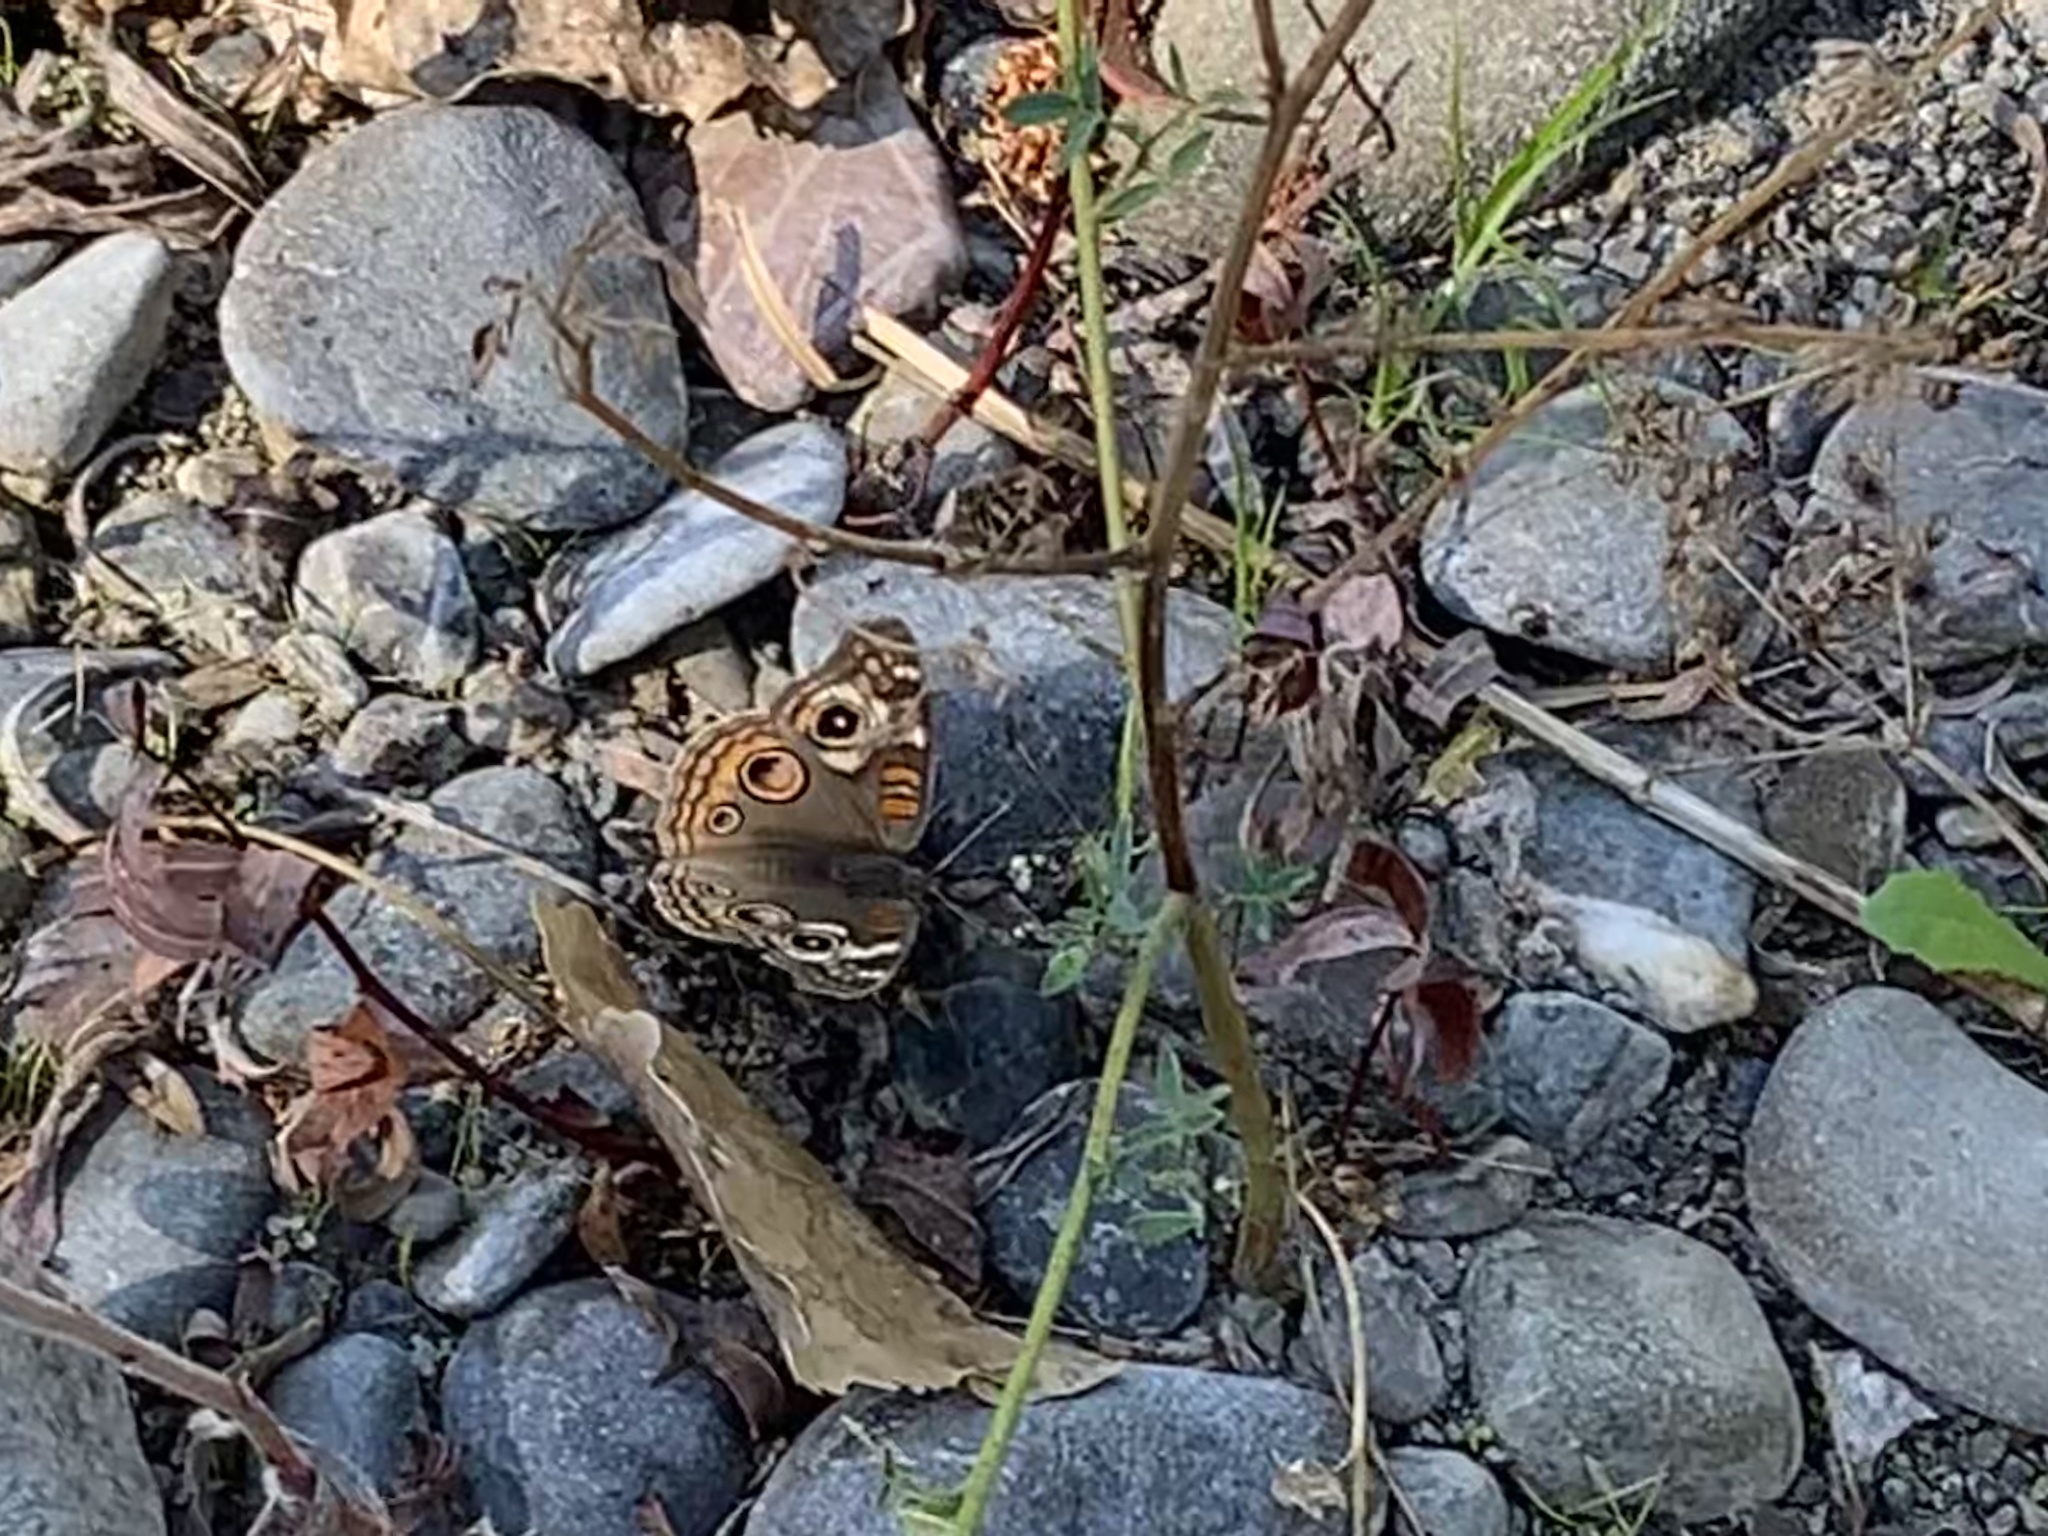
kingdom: Animalia
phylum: Arthropoda
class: Insecta
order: Lepidoptera
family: Nymphalidae
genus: Junonia
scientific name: Junonia grisea
